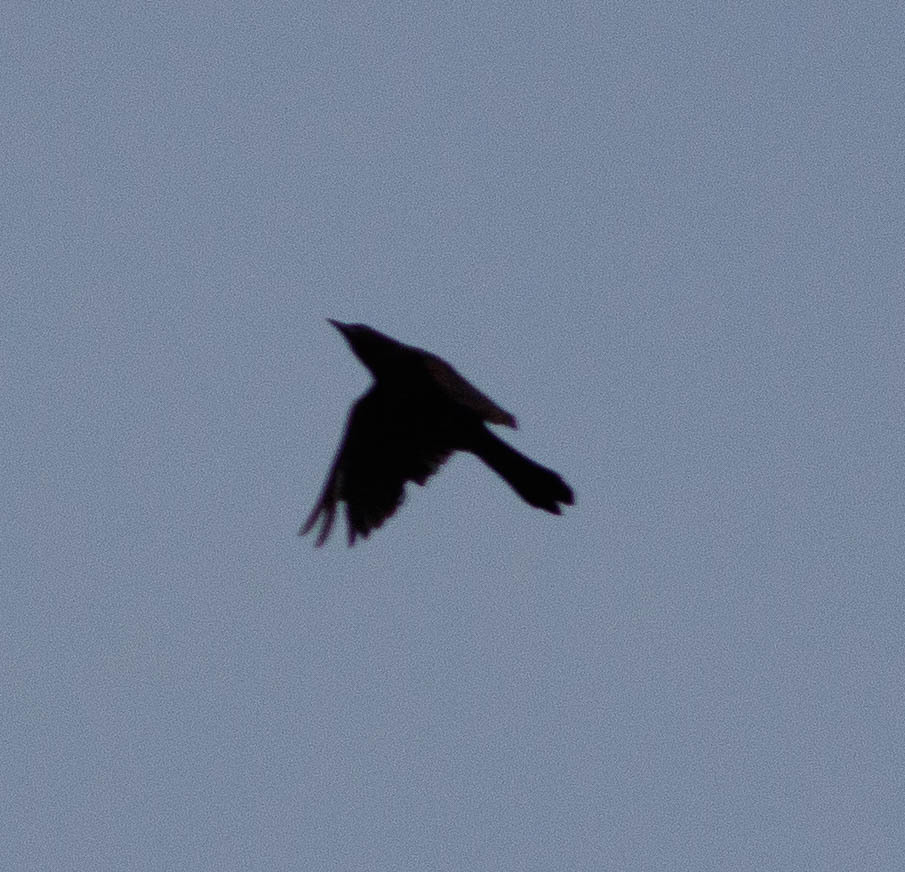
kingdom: Animalia
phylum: Chordata
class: Aves
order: Passeriformes
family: Icteridae
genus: Quiscalus
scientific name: Quiscalus quiscula
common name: Common grackle
